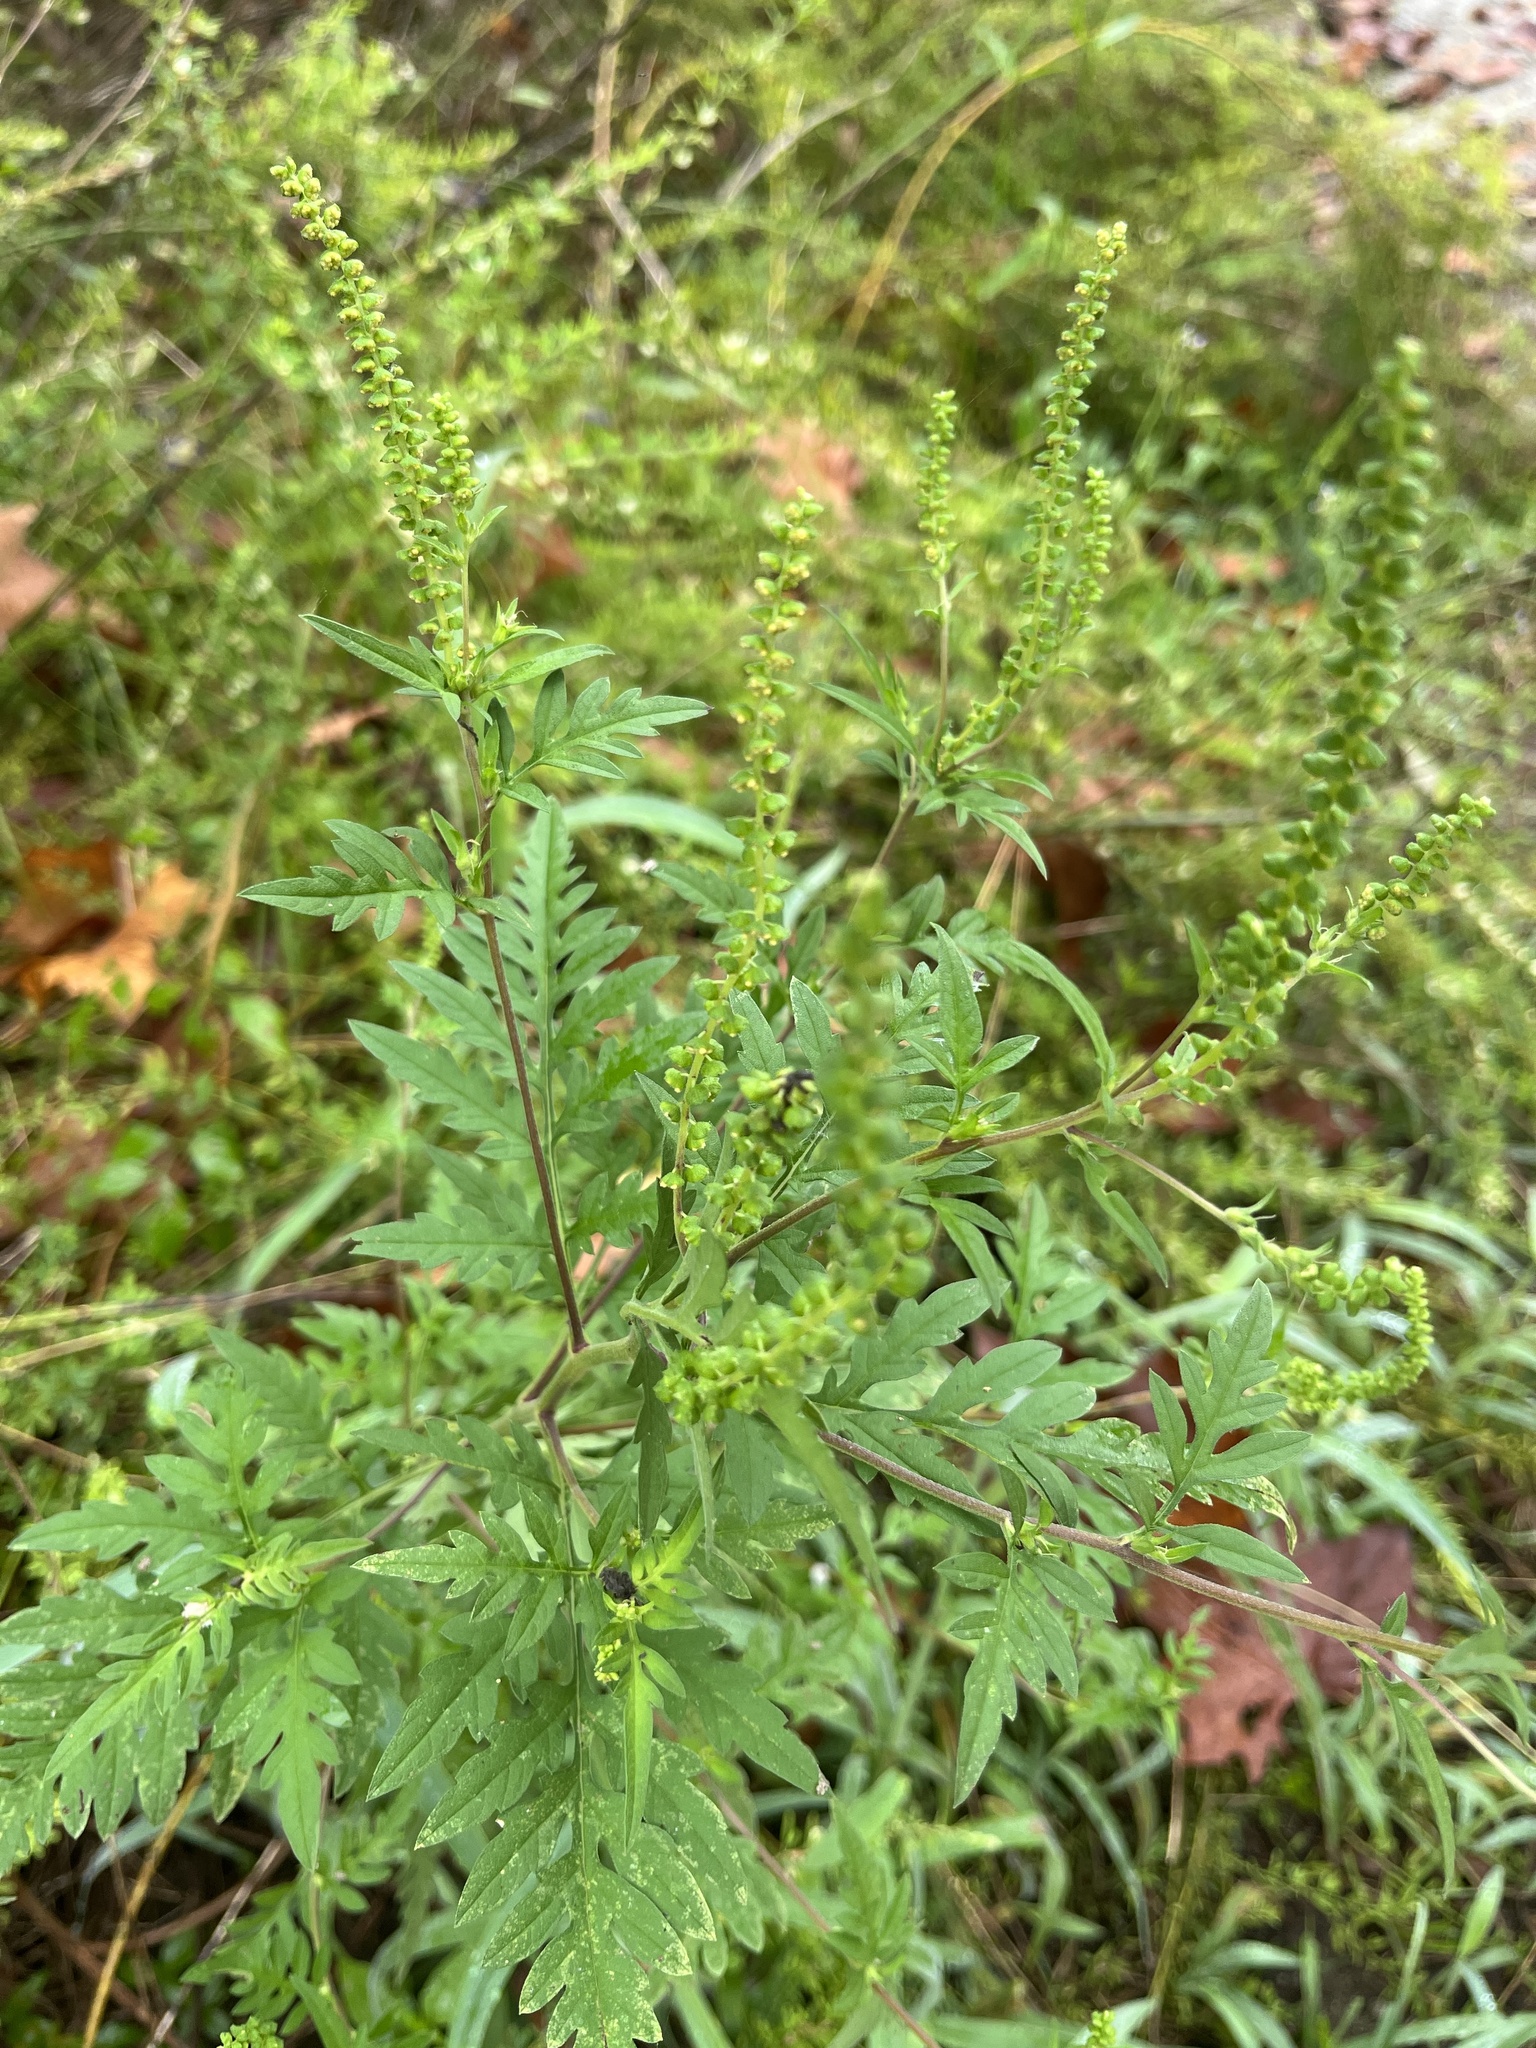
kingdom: Plantae
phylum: Tracheophyta
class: Magnoliopsida
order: Asterales
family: Asteraceae
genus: Ambrosia
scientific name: Ambrosia artemisiifolia
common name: Annual ragweed
